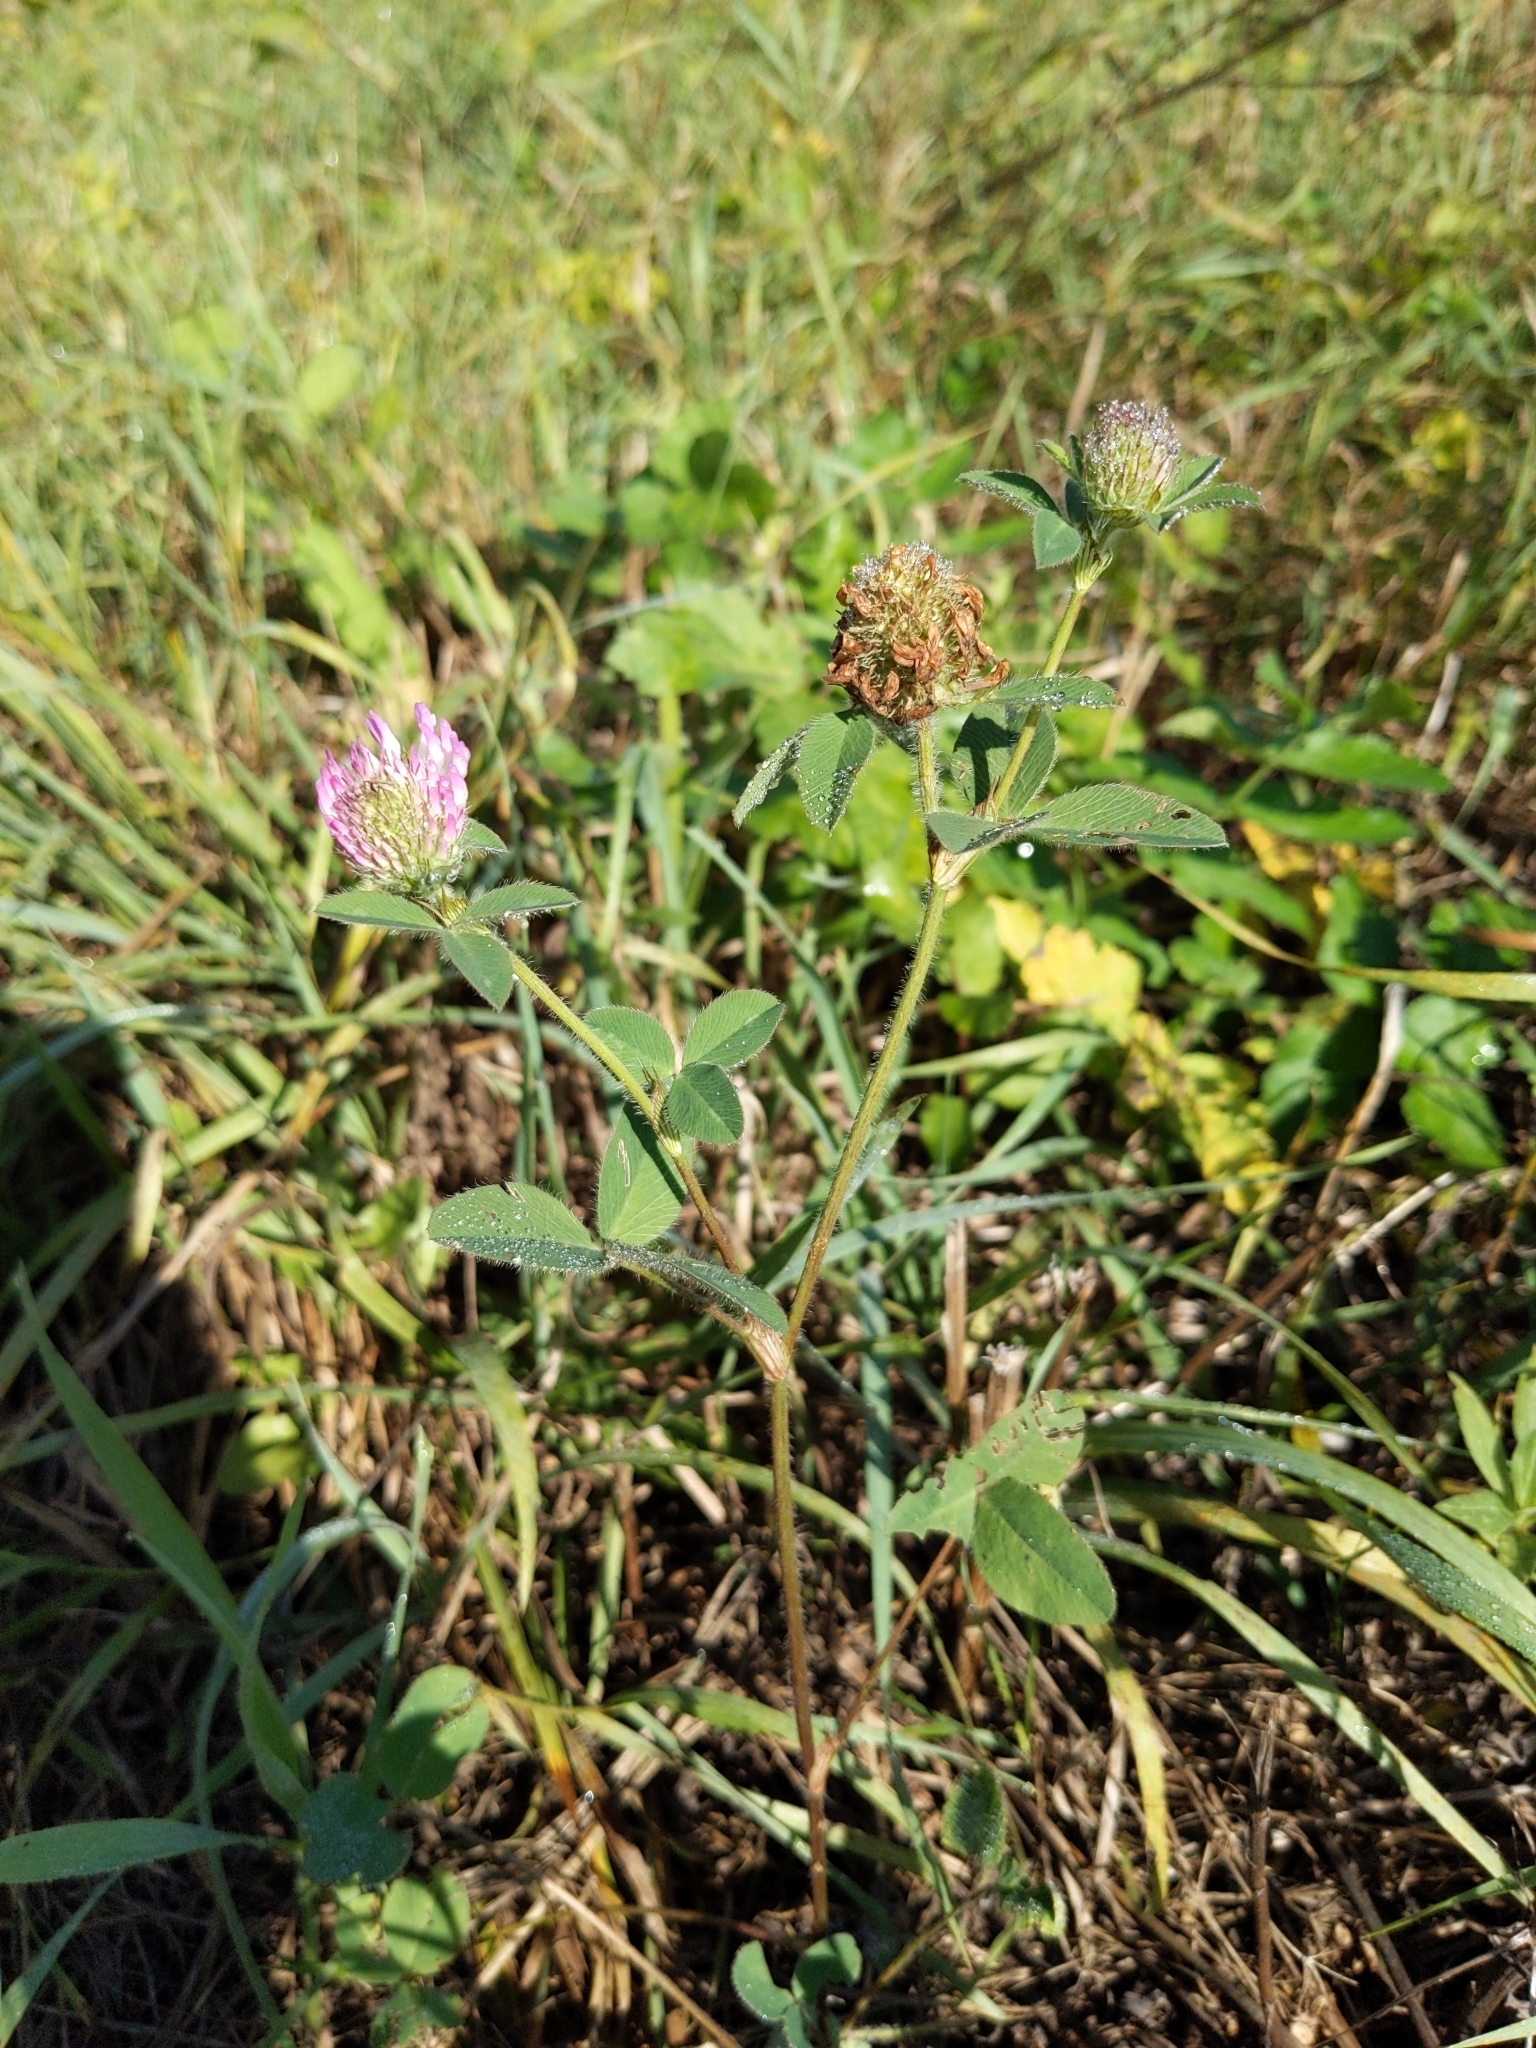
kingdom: Plantae
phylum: Tracheophyta
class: Magnoliopsida
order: Fabales
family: Fabaceae
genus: Trifolium
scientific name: Trifolium pratense
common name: Red clover
